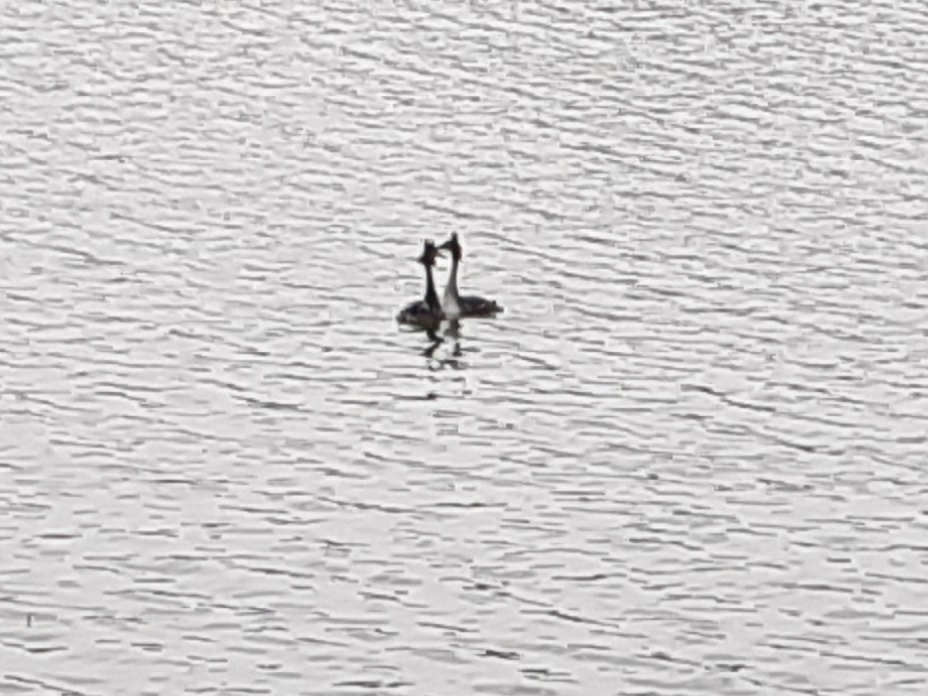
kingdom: Animalia
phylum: Chordata
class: Aves
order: Podicipediformes
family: Podicipedidae
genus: Podiceps
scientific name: Podiceps cristatus
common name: Great crested grebe
